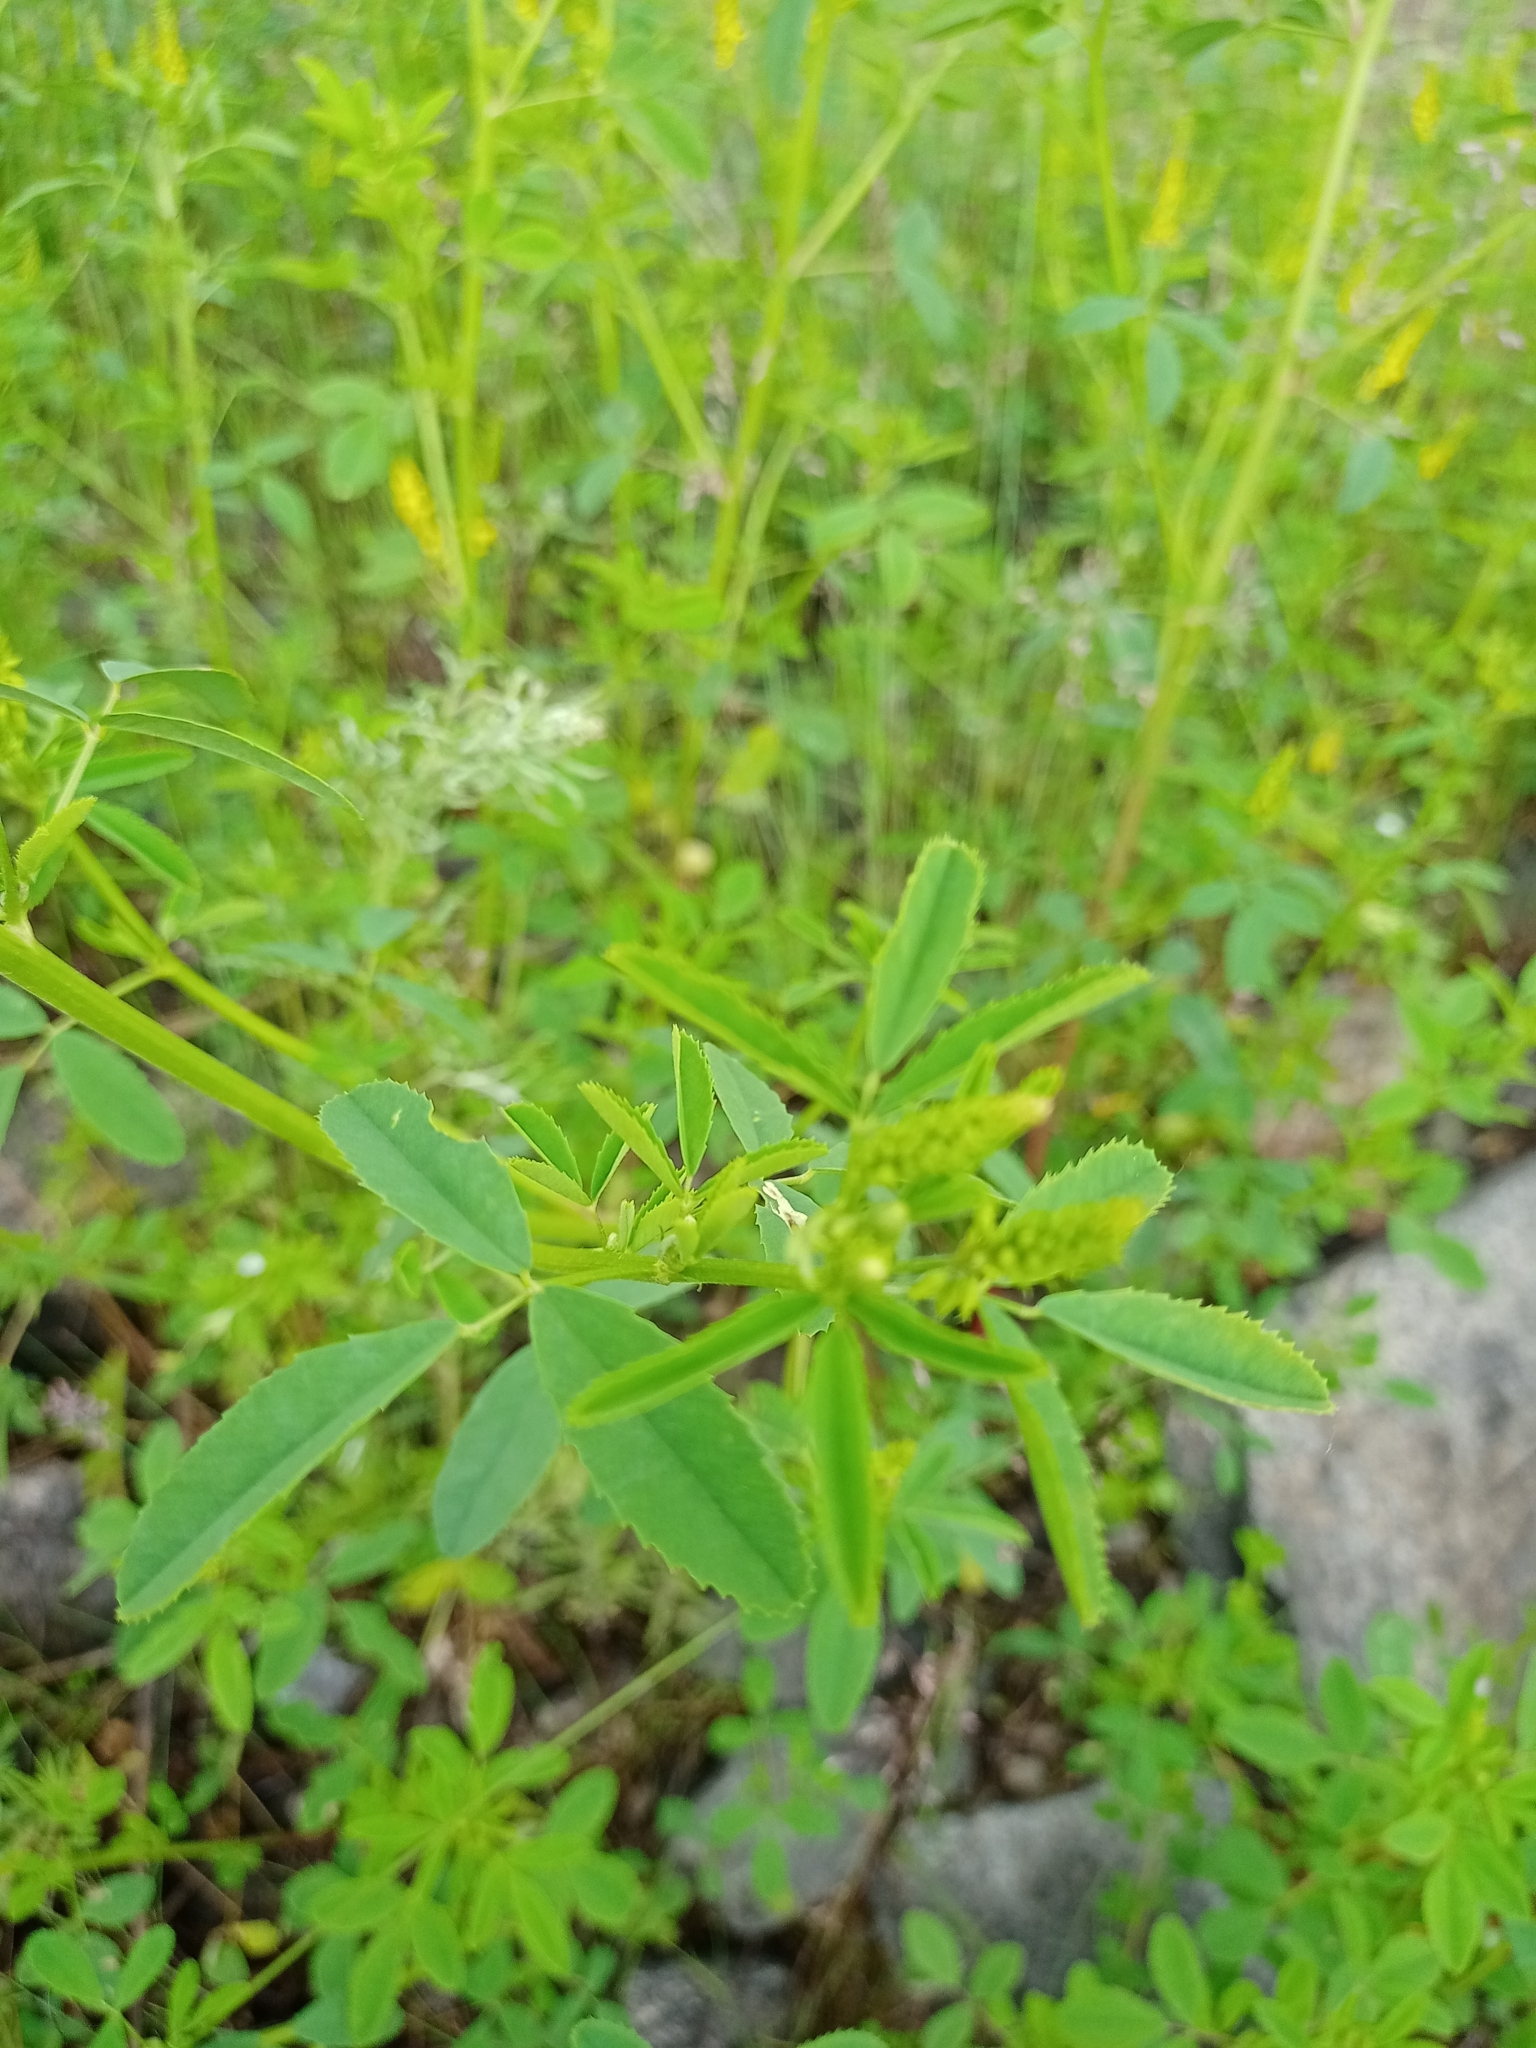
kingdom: Plantae
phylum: Tracheophyta
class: Magnoliopsida
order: Fabales
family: Fabaceae
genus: Melilotus
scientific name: Melilotus suaveolens
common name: Daghestan sweet-clover
